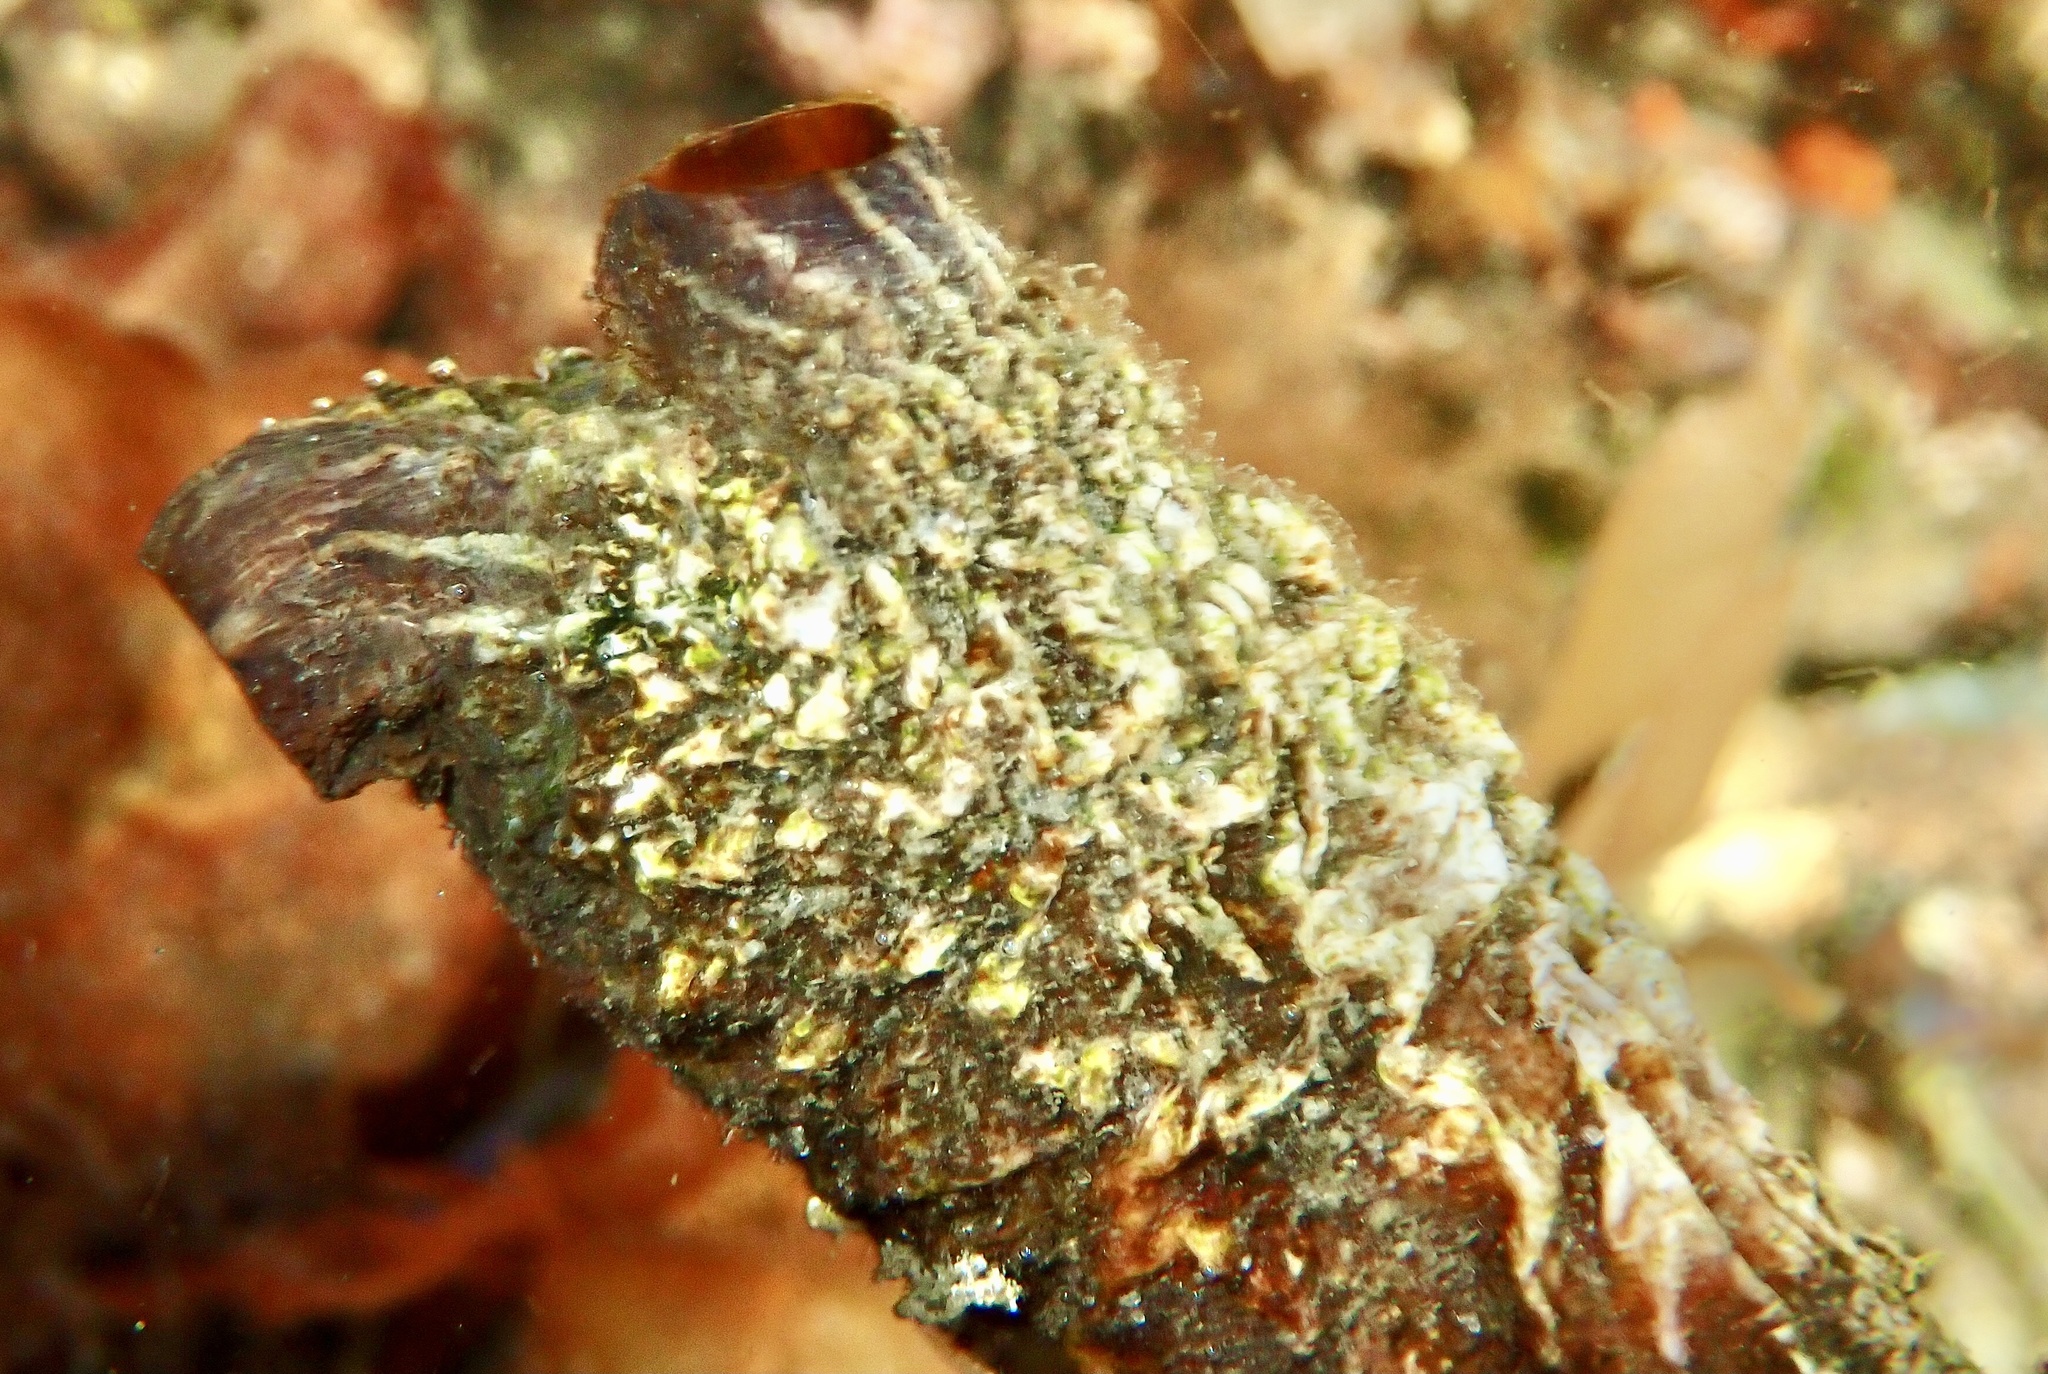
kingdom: Animalia
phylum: Chordata
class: Ascidiacea
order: Stolidobranchia
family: Styelidae
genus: Styela
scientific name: Styela clava
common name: Leathery sea squirt
